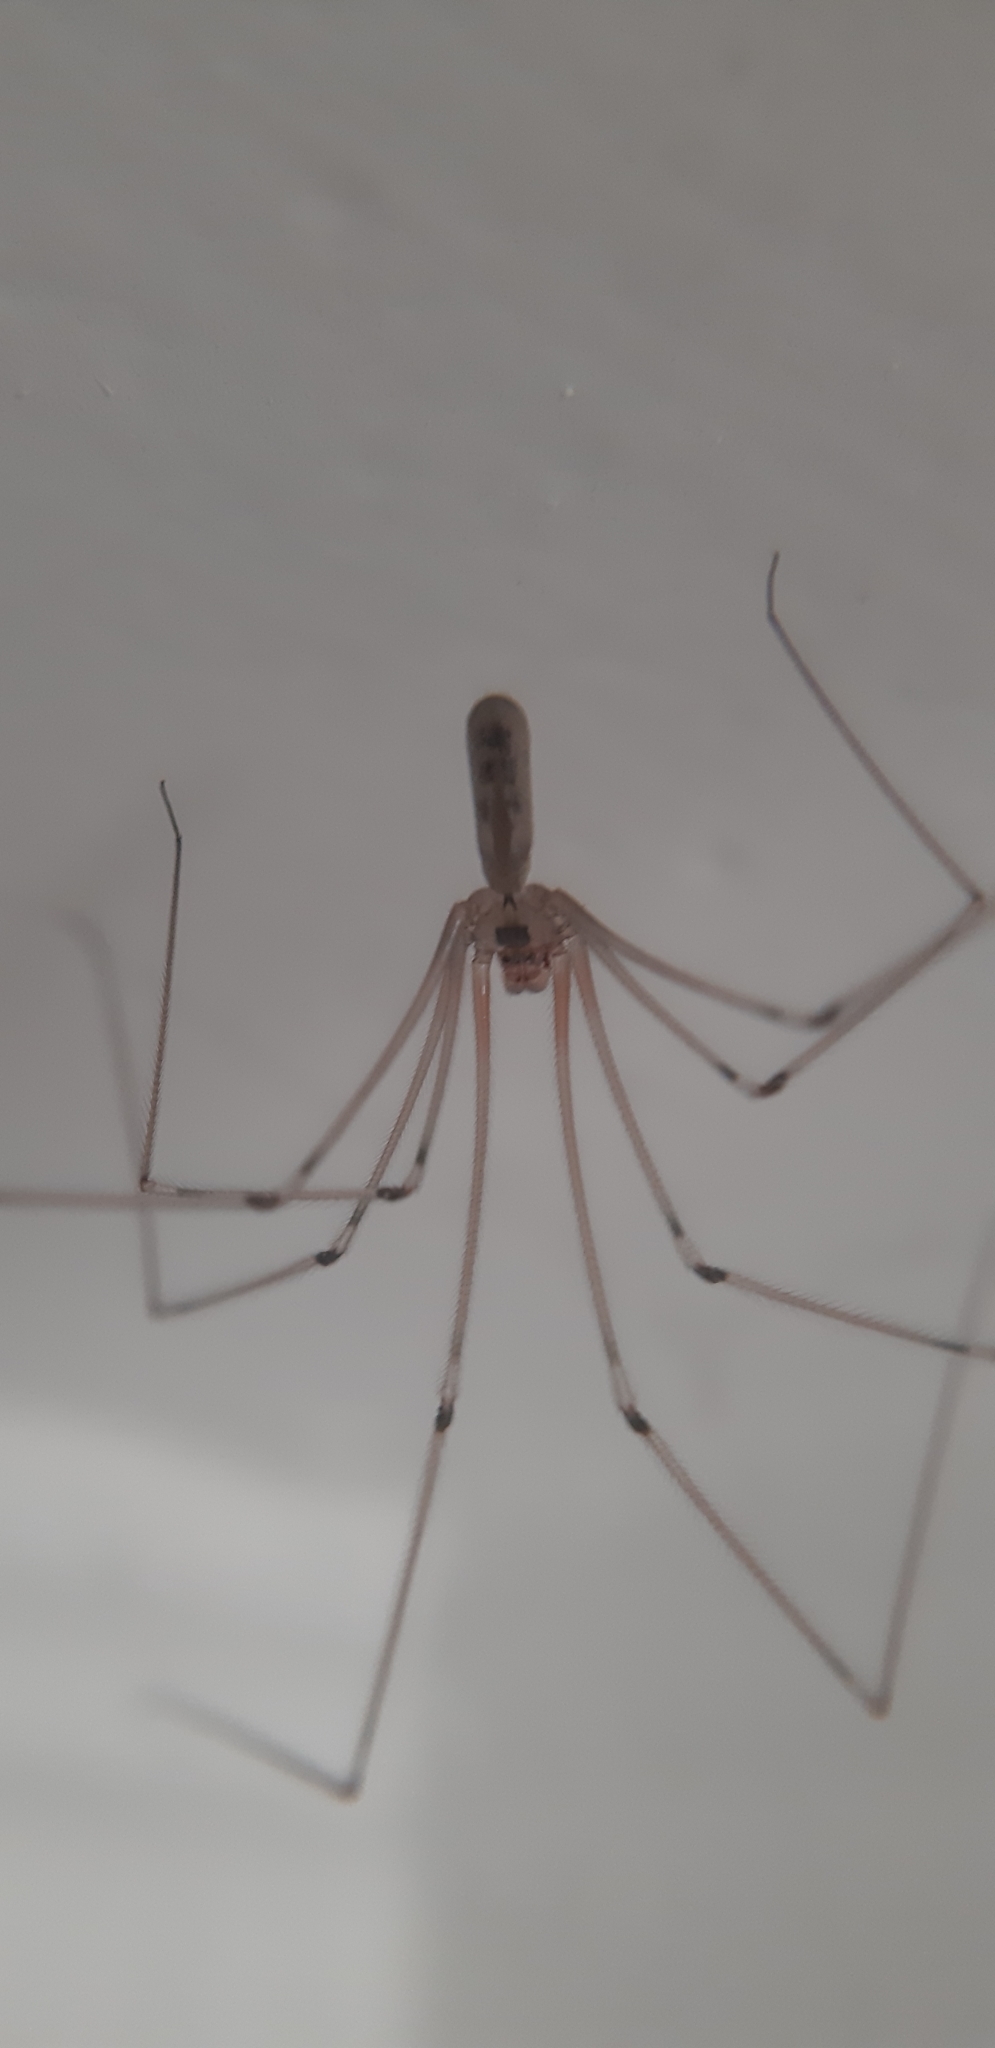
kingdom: Animalia
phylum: Arthropoda
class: Arachnida
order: Araneae
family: Pholcidae
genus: Pholcus
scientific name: Pholcus phalangioides
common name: Longbodied cellar spider
